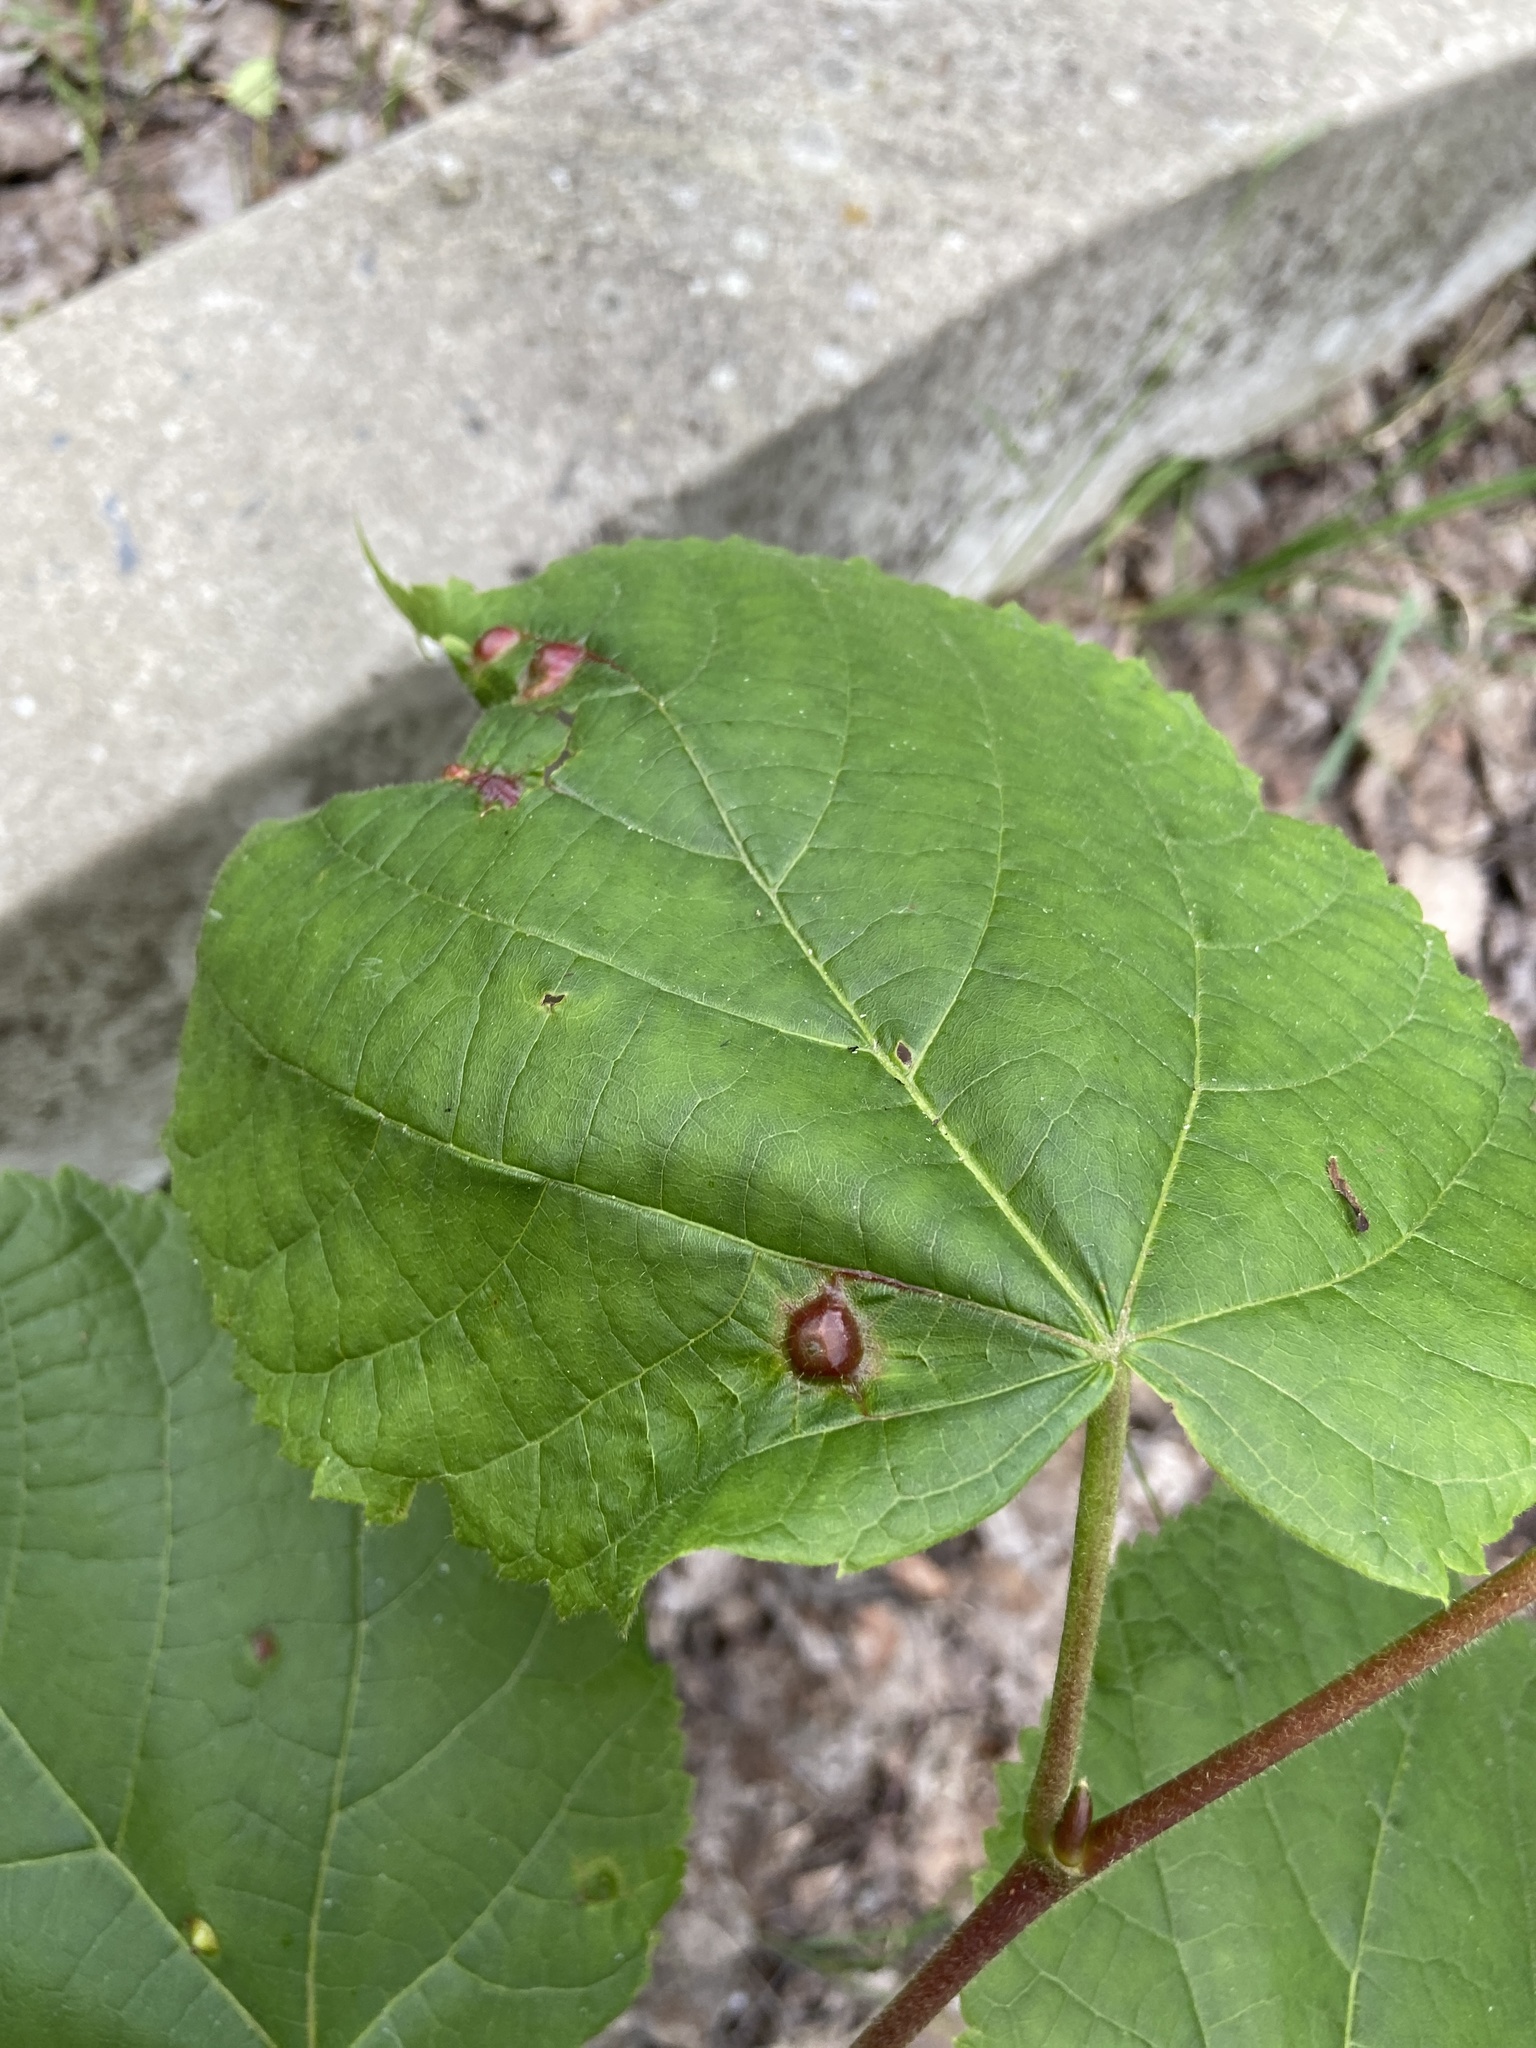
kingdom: Animalia
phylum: Arthropoda
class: Insecta
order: Diptera
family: Cecidomyiidae
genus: Didymomyia
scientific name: Didymomyia tiliacea
